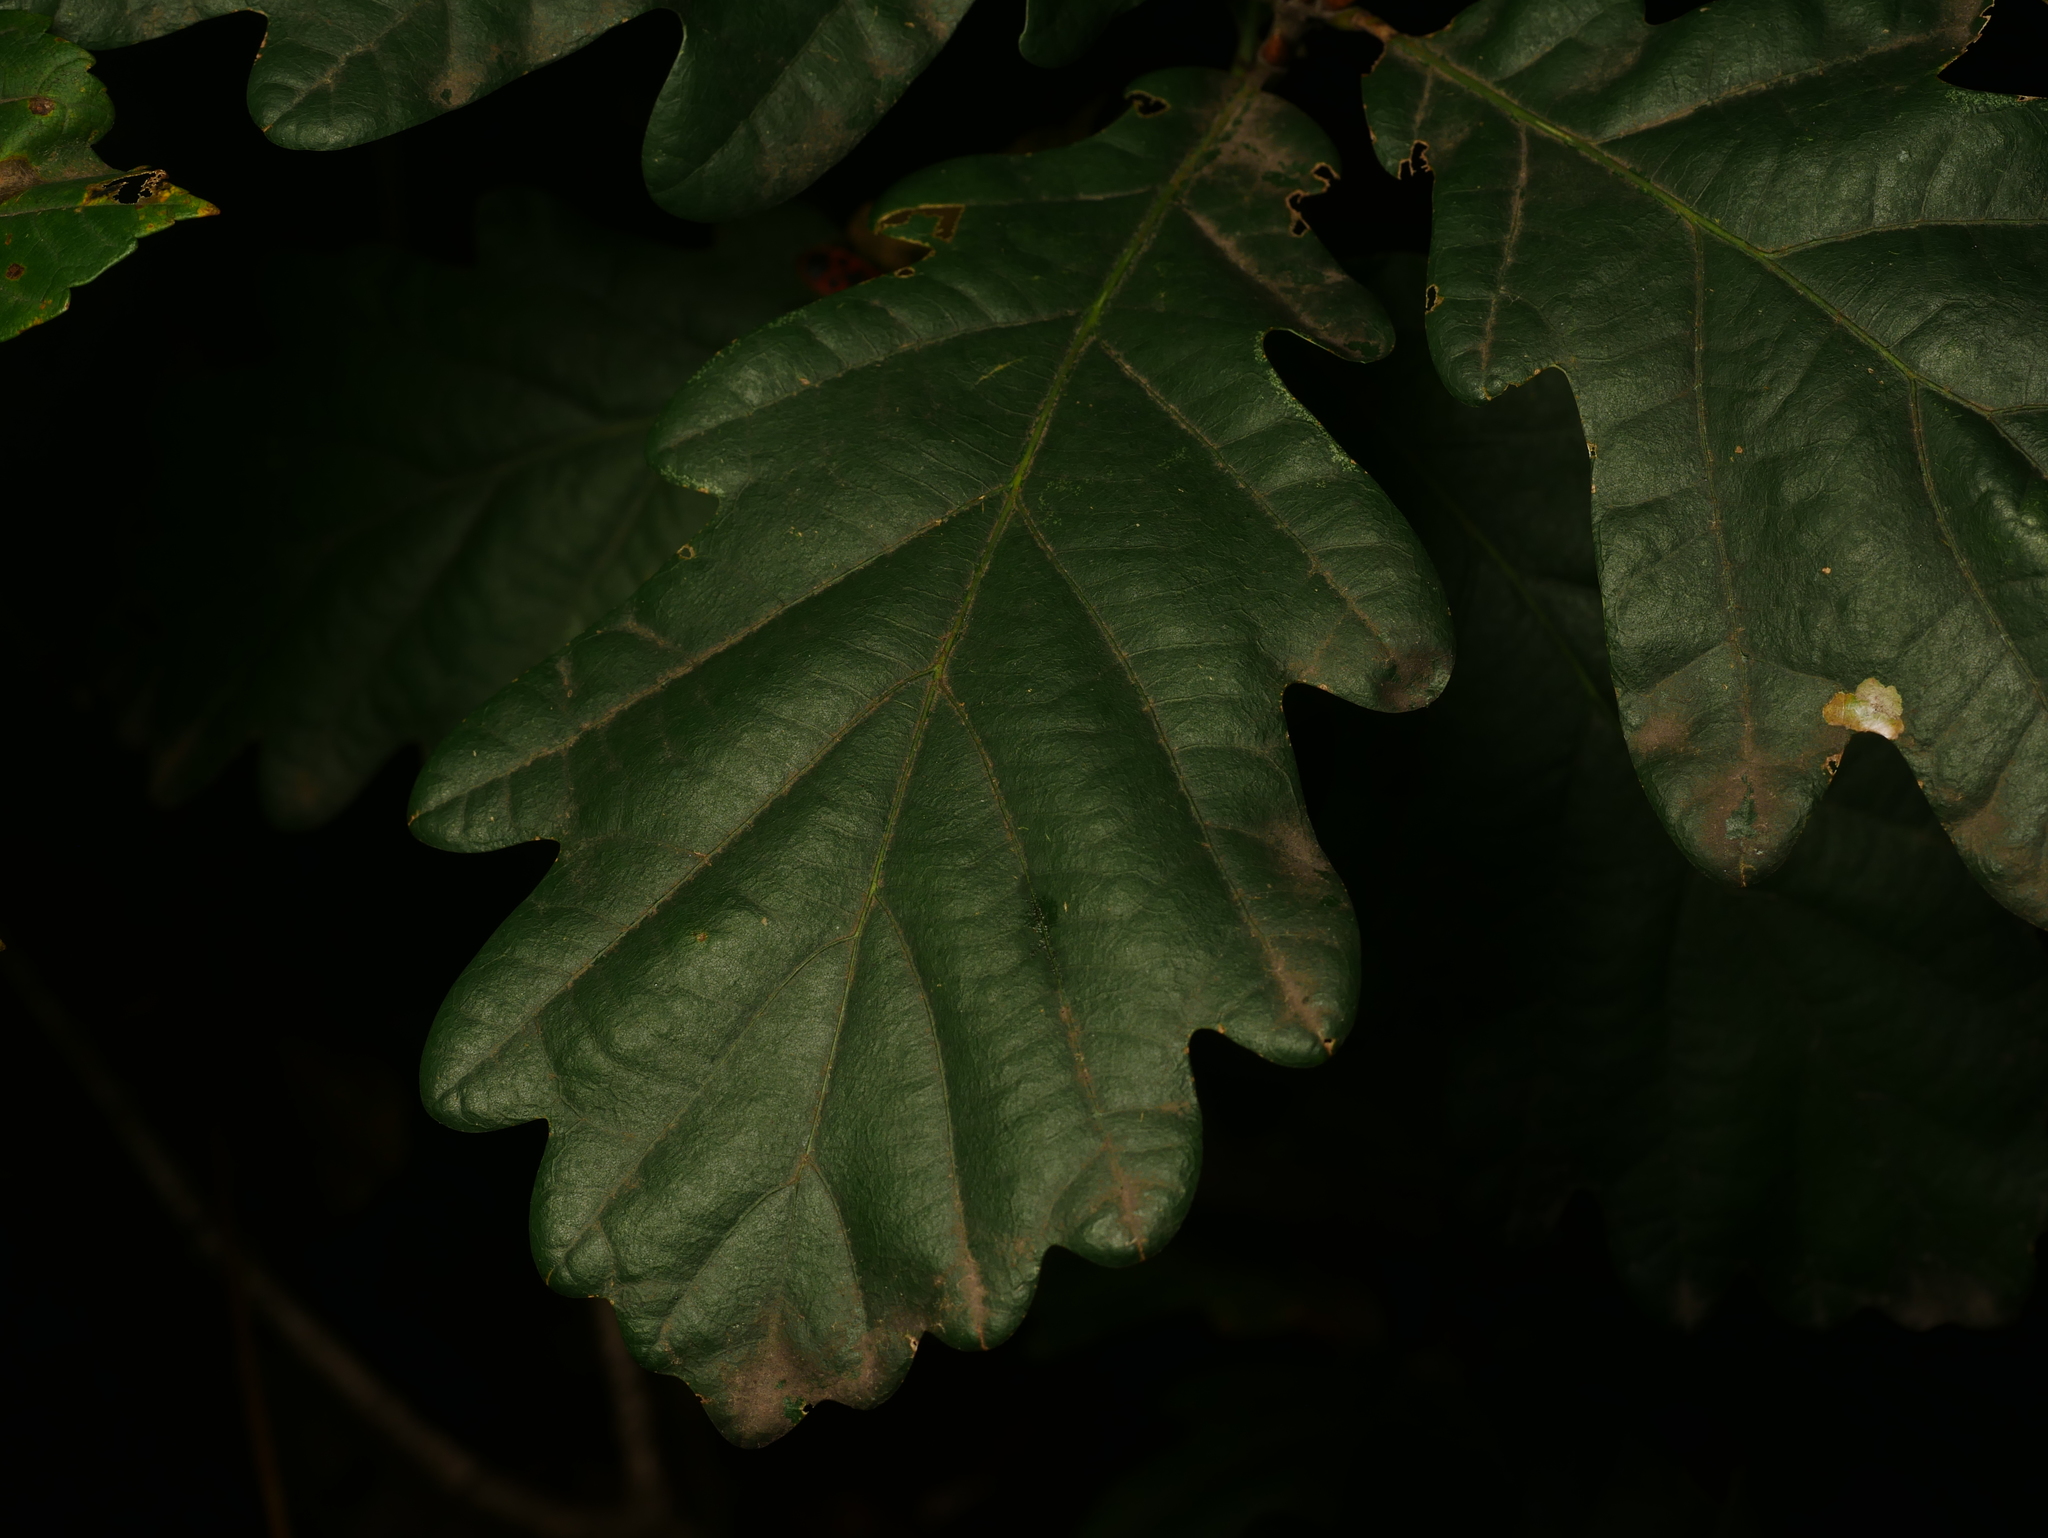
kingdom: Plantae
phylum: Tracheophyta
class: Magnoliopsida
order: Fagales
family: Fagaceae
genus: Quercus
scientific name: Quercus robur
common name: Pedunculate oak
